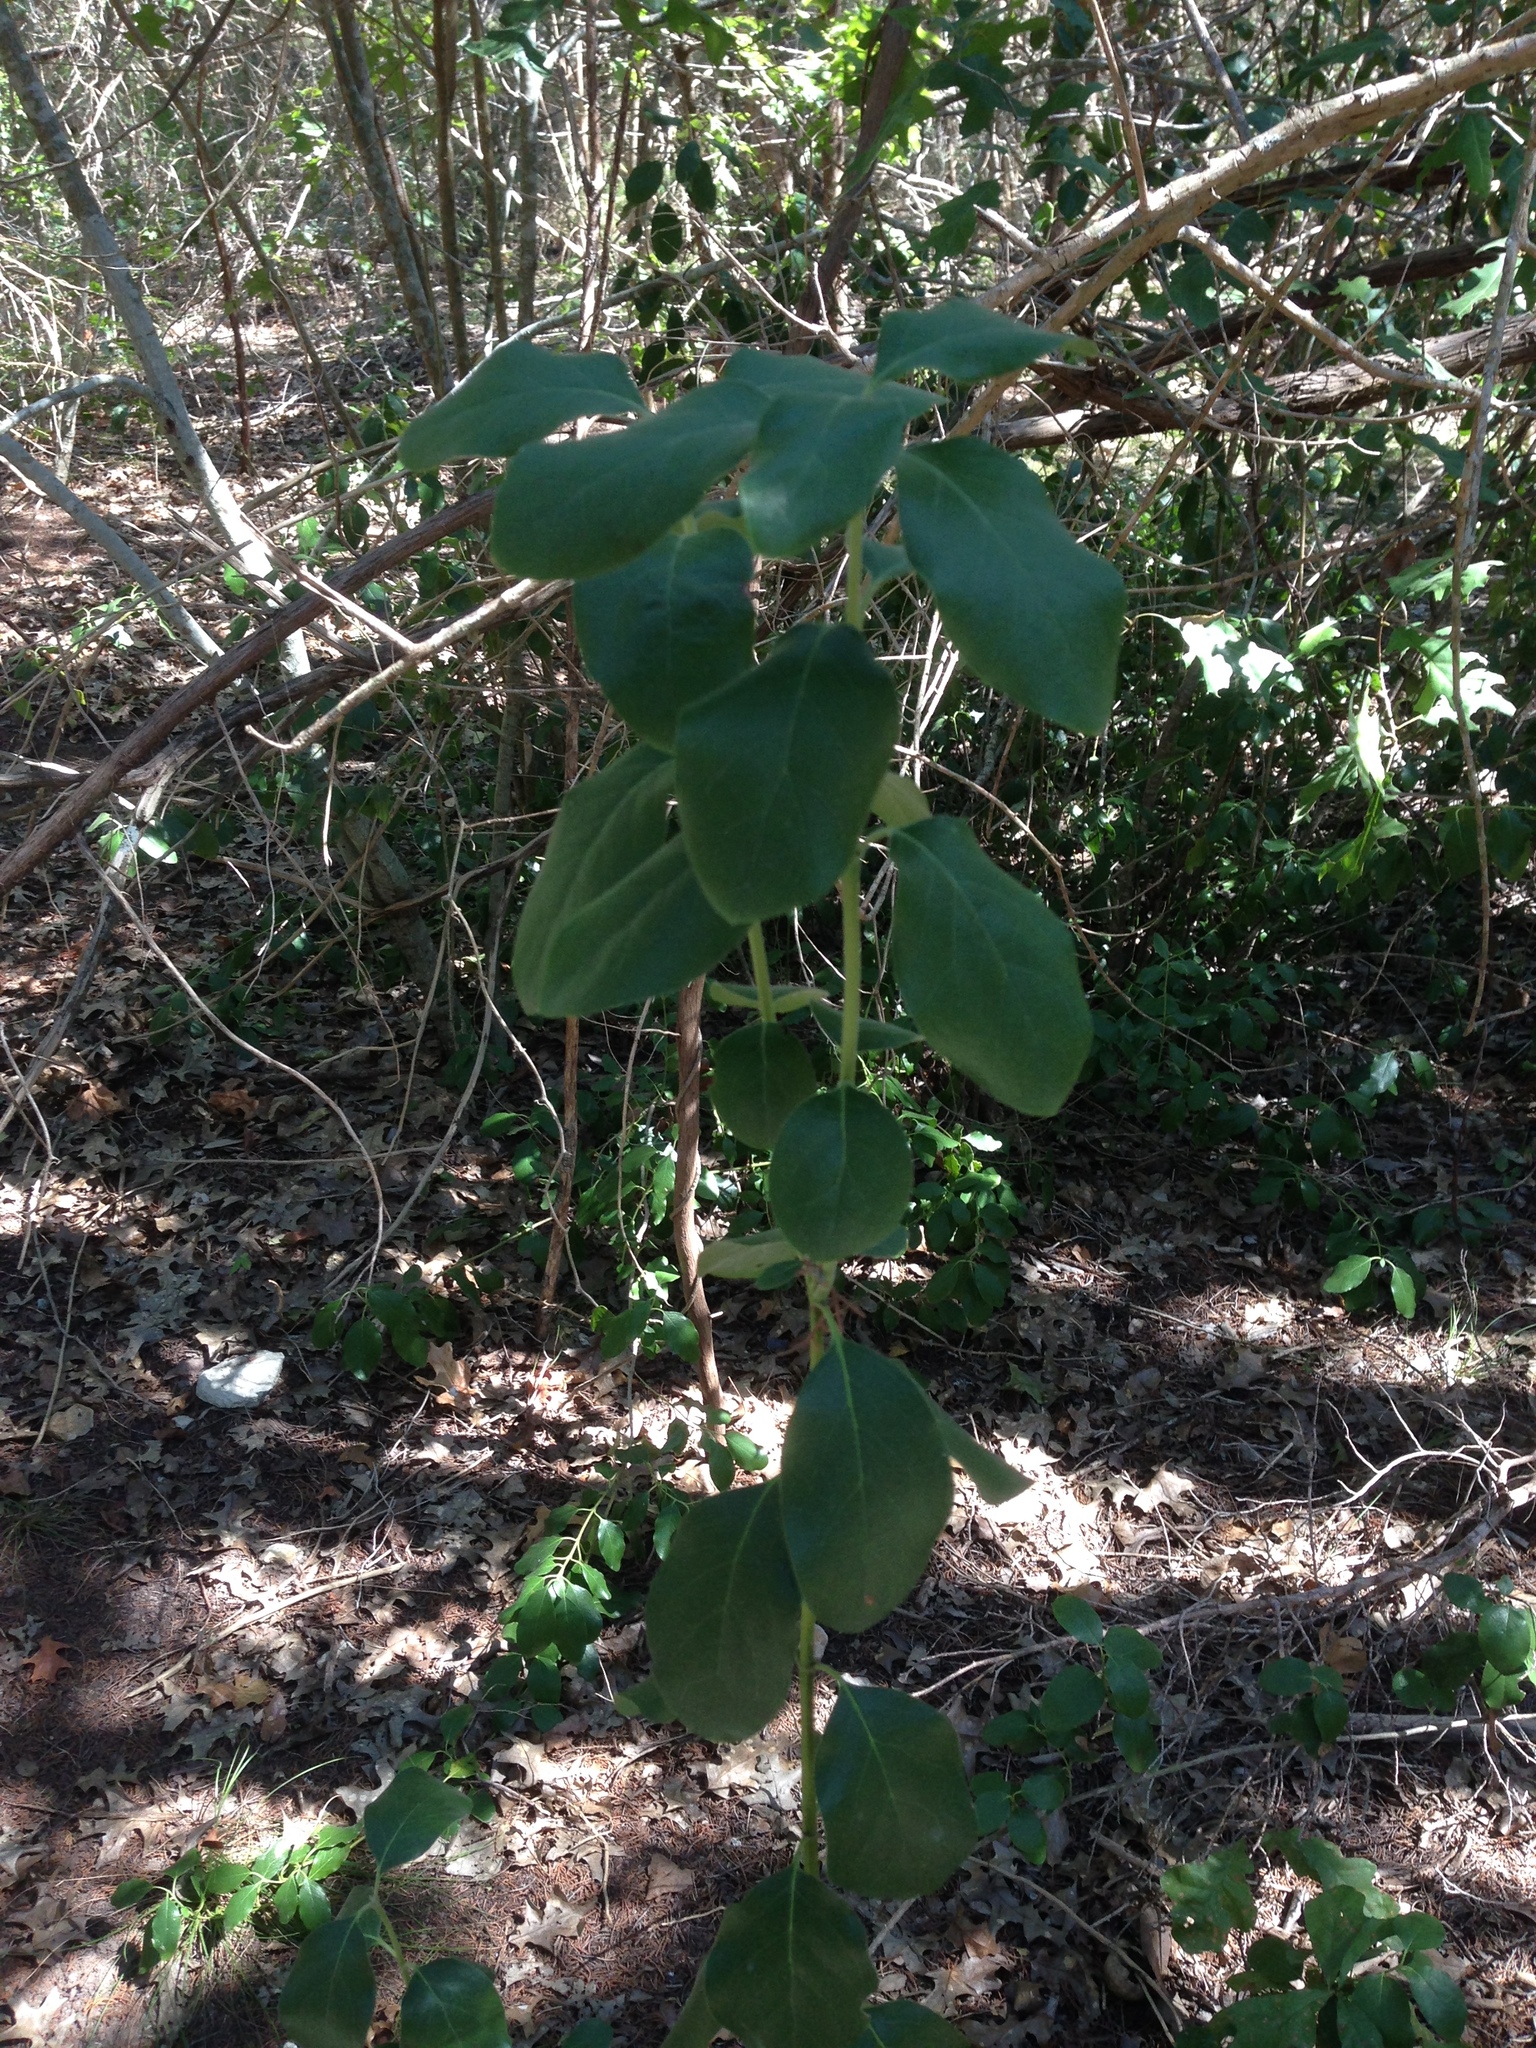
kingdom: Plantae
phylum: Tracheophyta
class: Magnoliopsida
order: Garryales
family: Garryaceae
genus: Garrya
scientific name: Garrya lindheimeri
